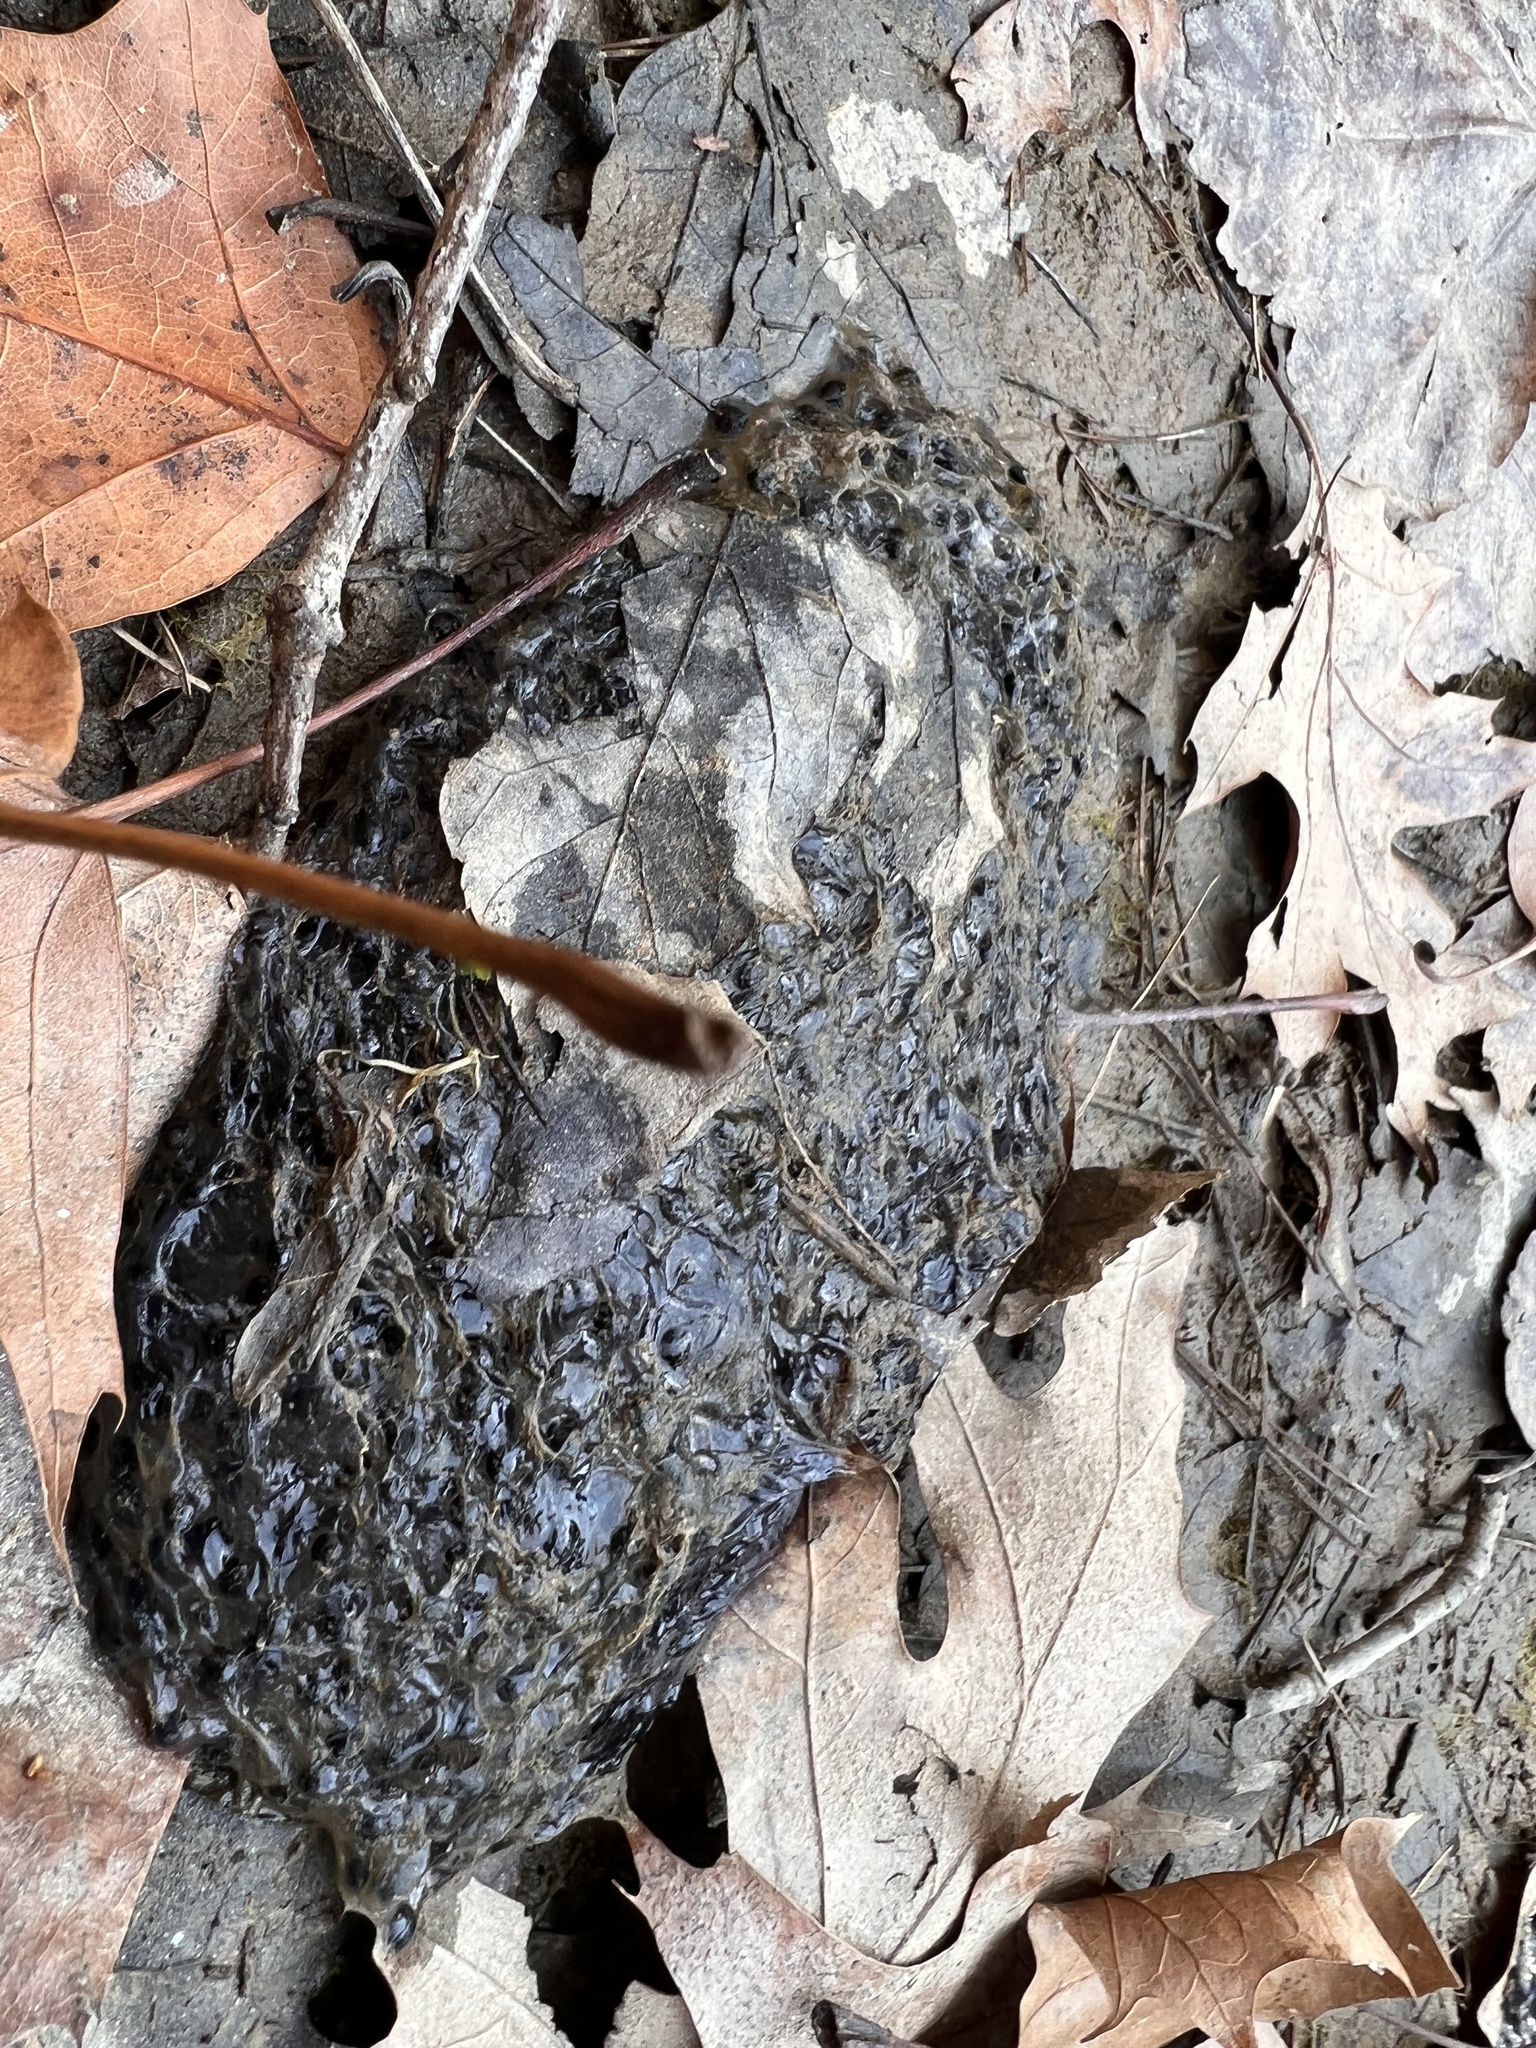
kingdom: Animalia
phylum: Chordata
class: Amphibia
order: Anura
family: Ranidae
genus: Lithobates
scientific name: Lithobates sylvaticus
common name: Wood frog
